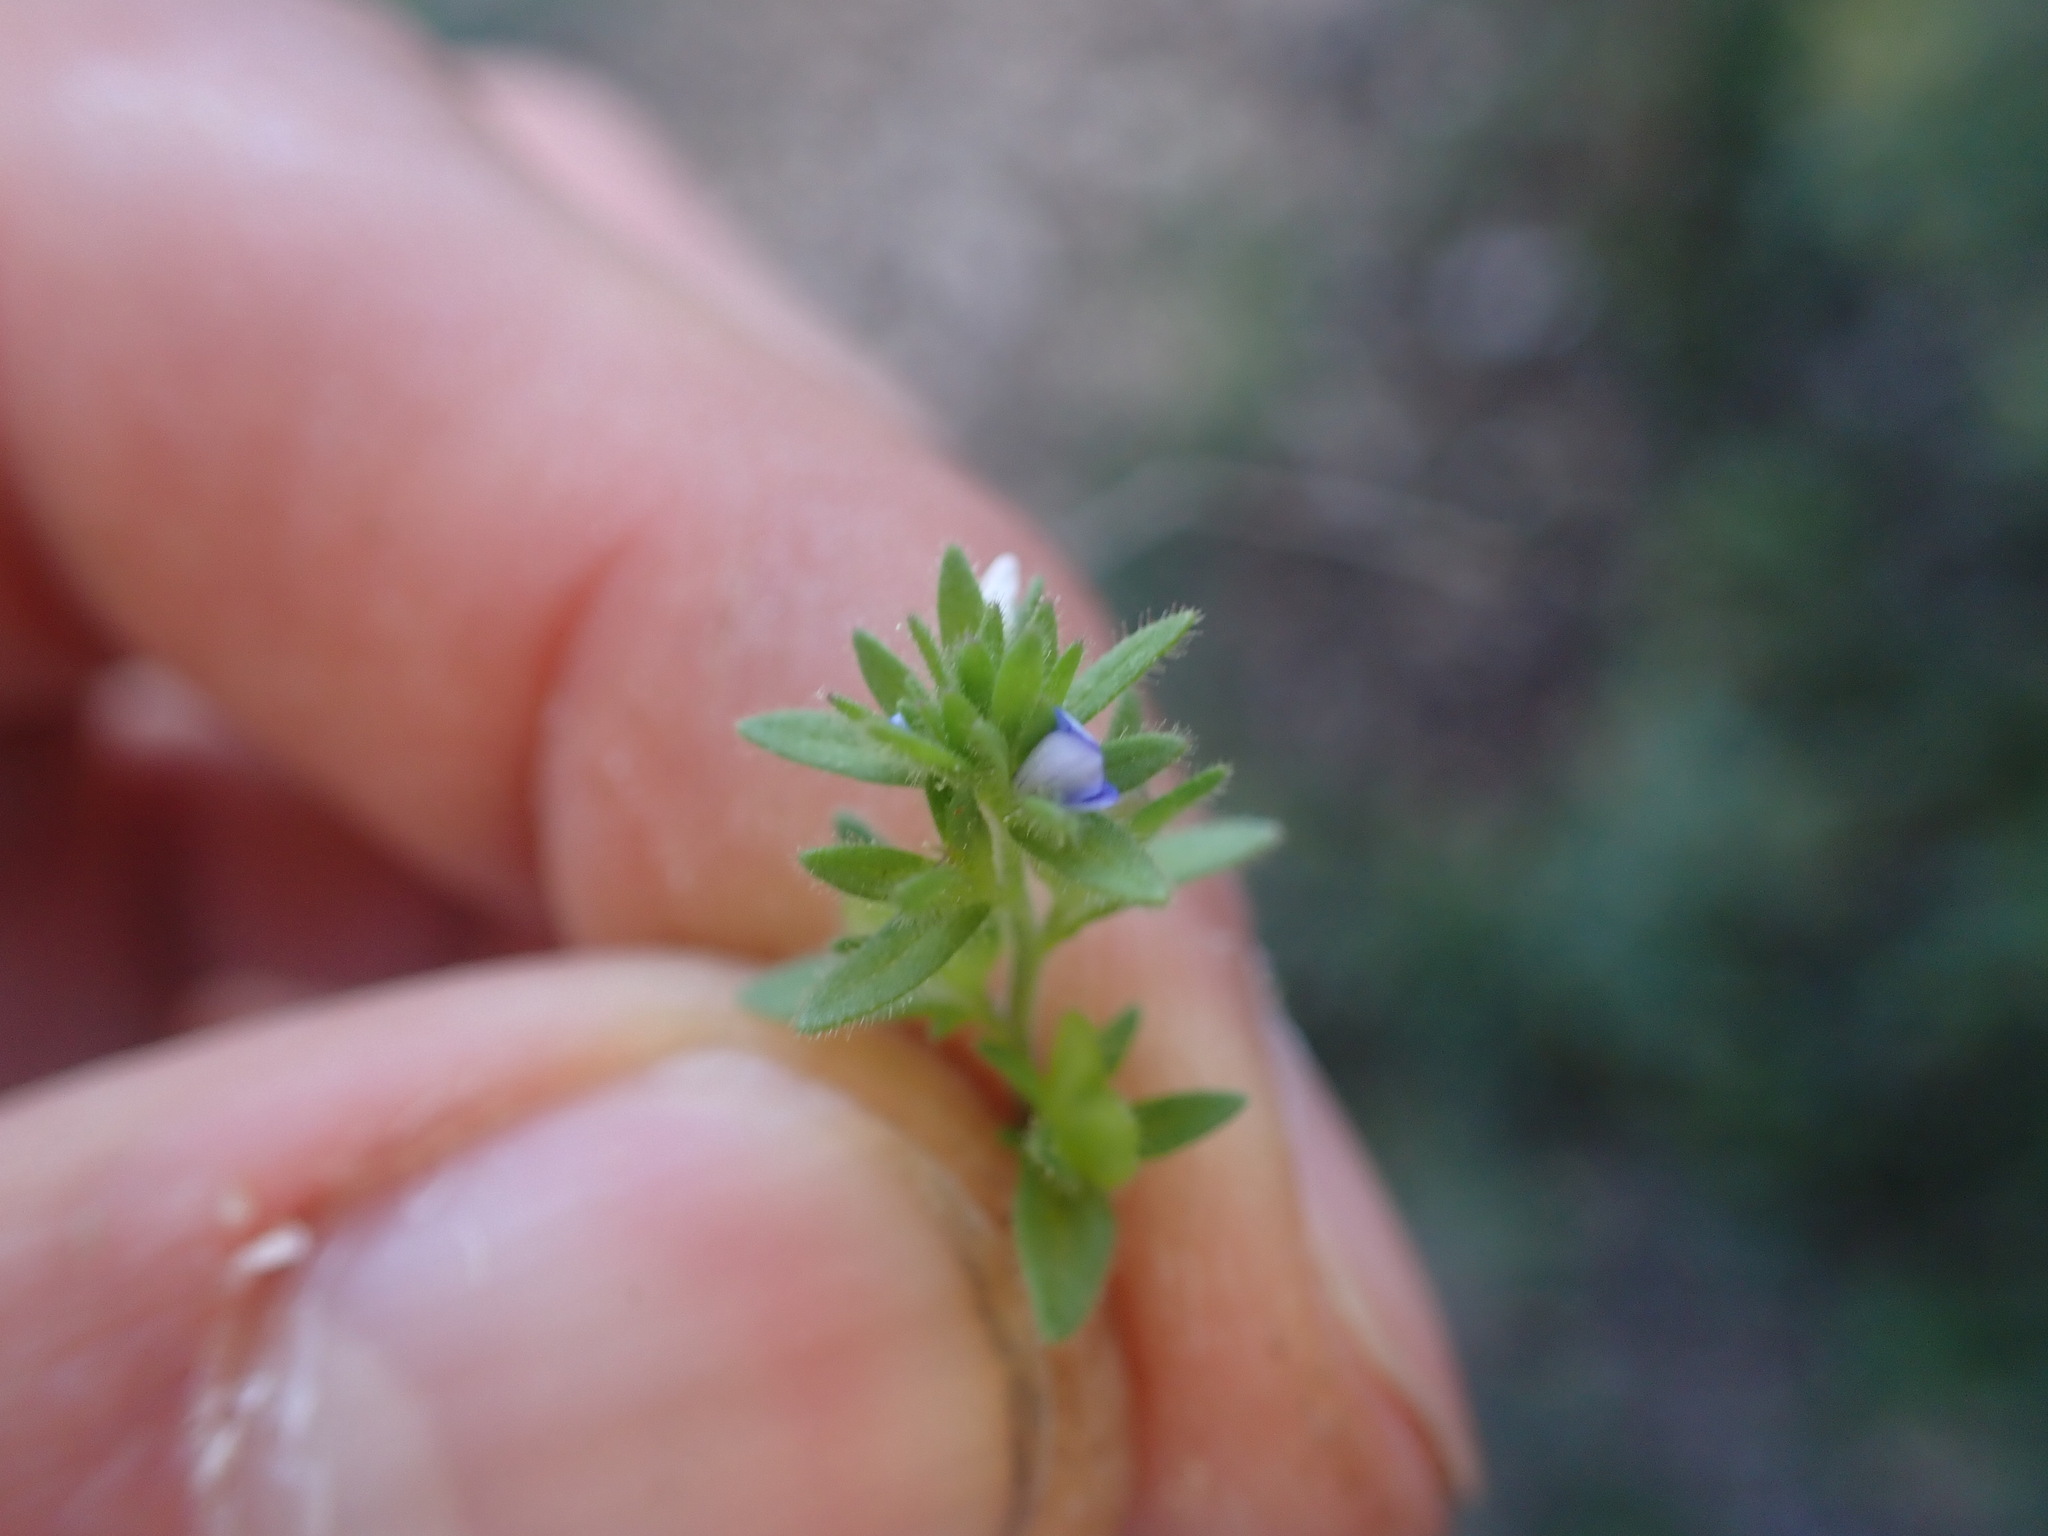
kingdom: Plantae
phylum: Tracheophyta
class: Magnoliopsida
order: Lamiales
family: Plantaginaceae
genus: Veronica
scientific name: Veronica arvensis
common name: Corn speedwell
